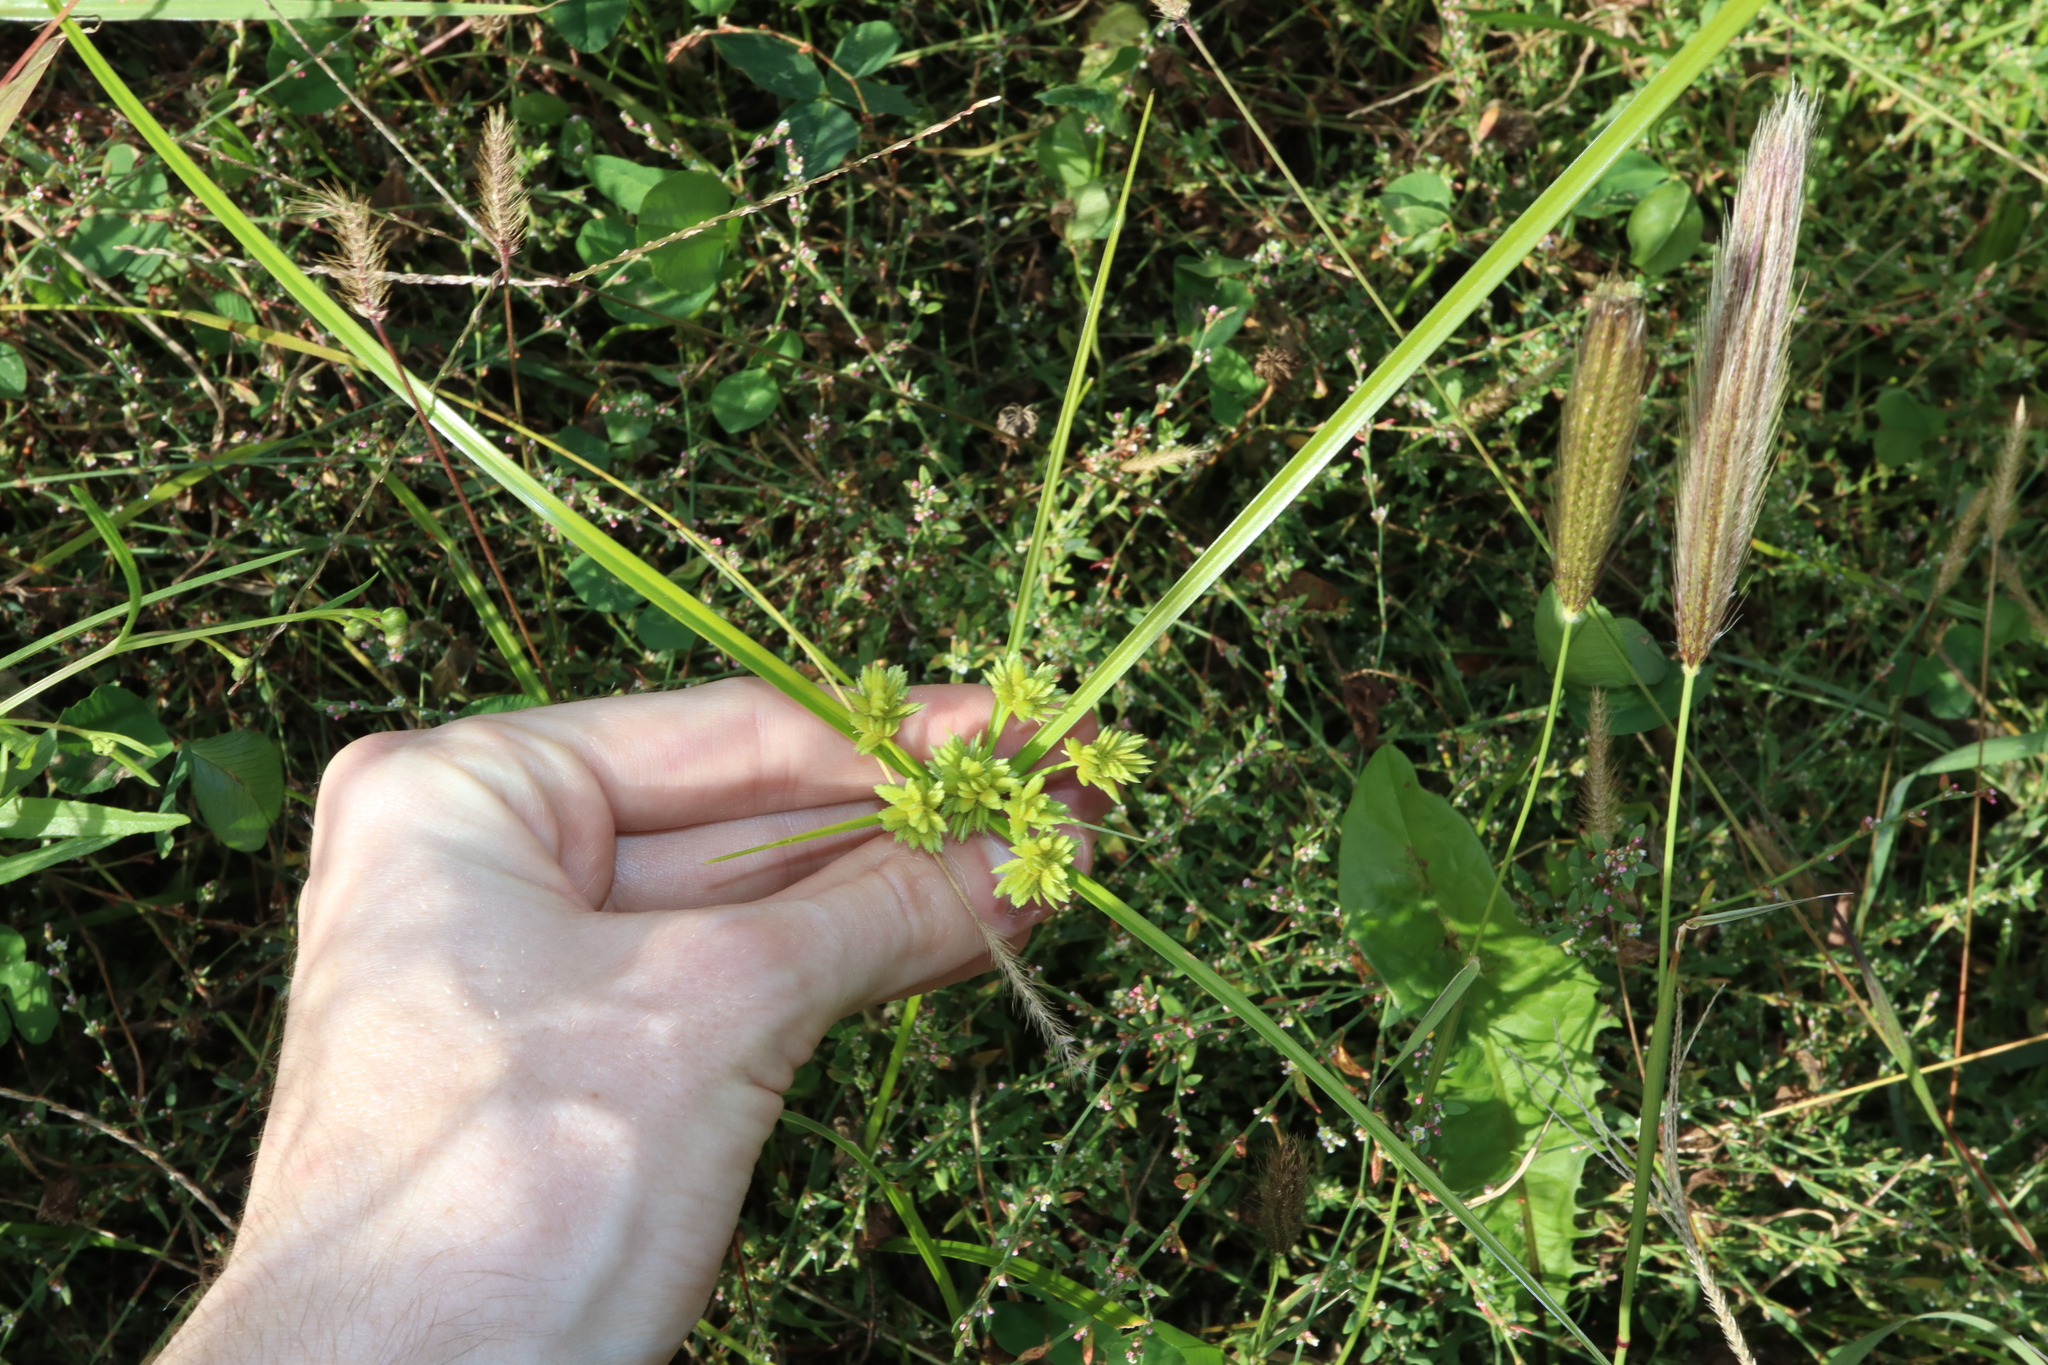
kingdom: Plantae
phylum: Tracheophyta
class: Liliopsida
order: Poales
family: Cyperaceae
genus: Cyperus
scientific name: Cyperus eragrostis
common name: Tall flatsedge
